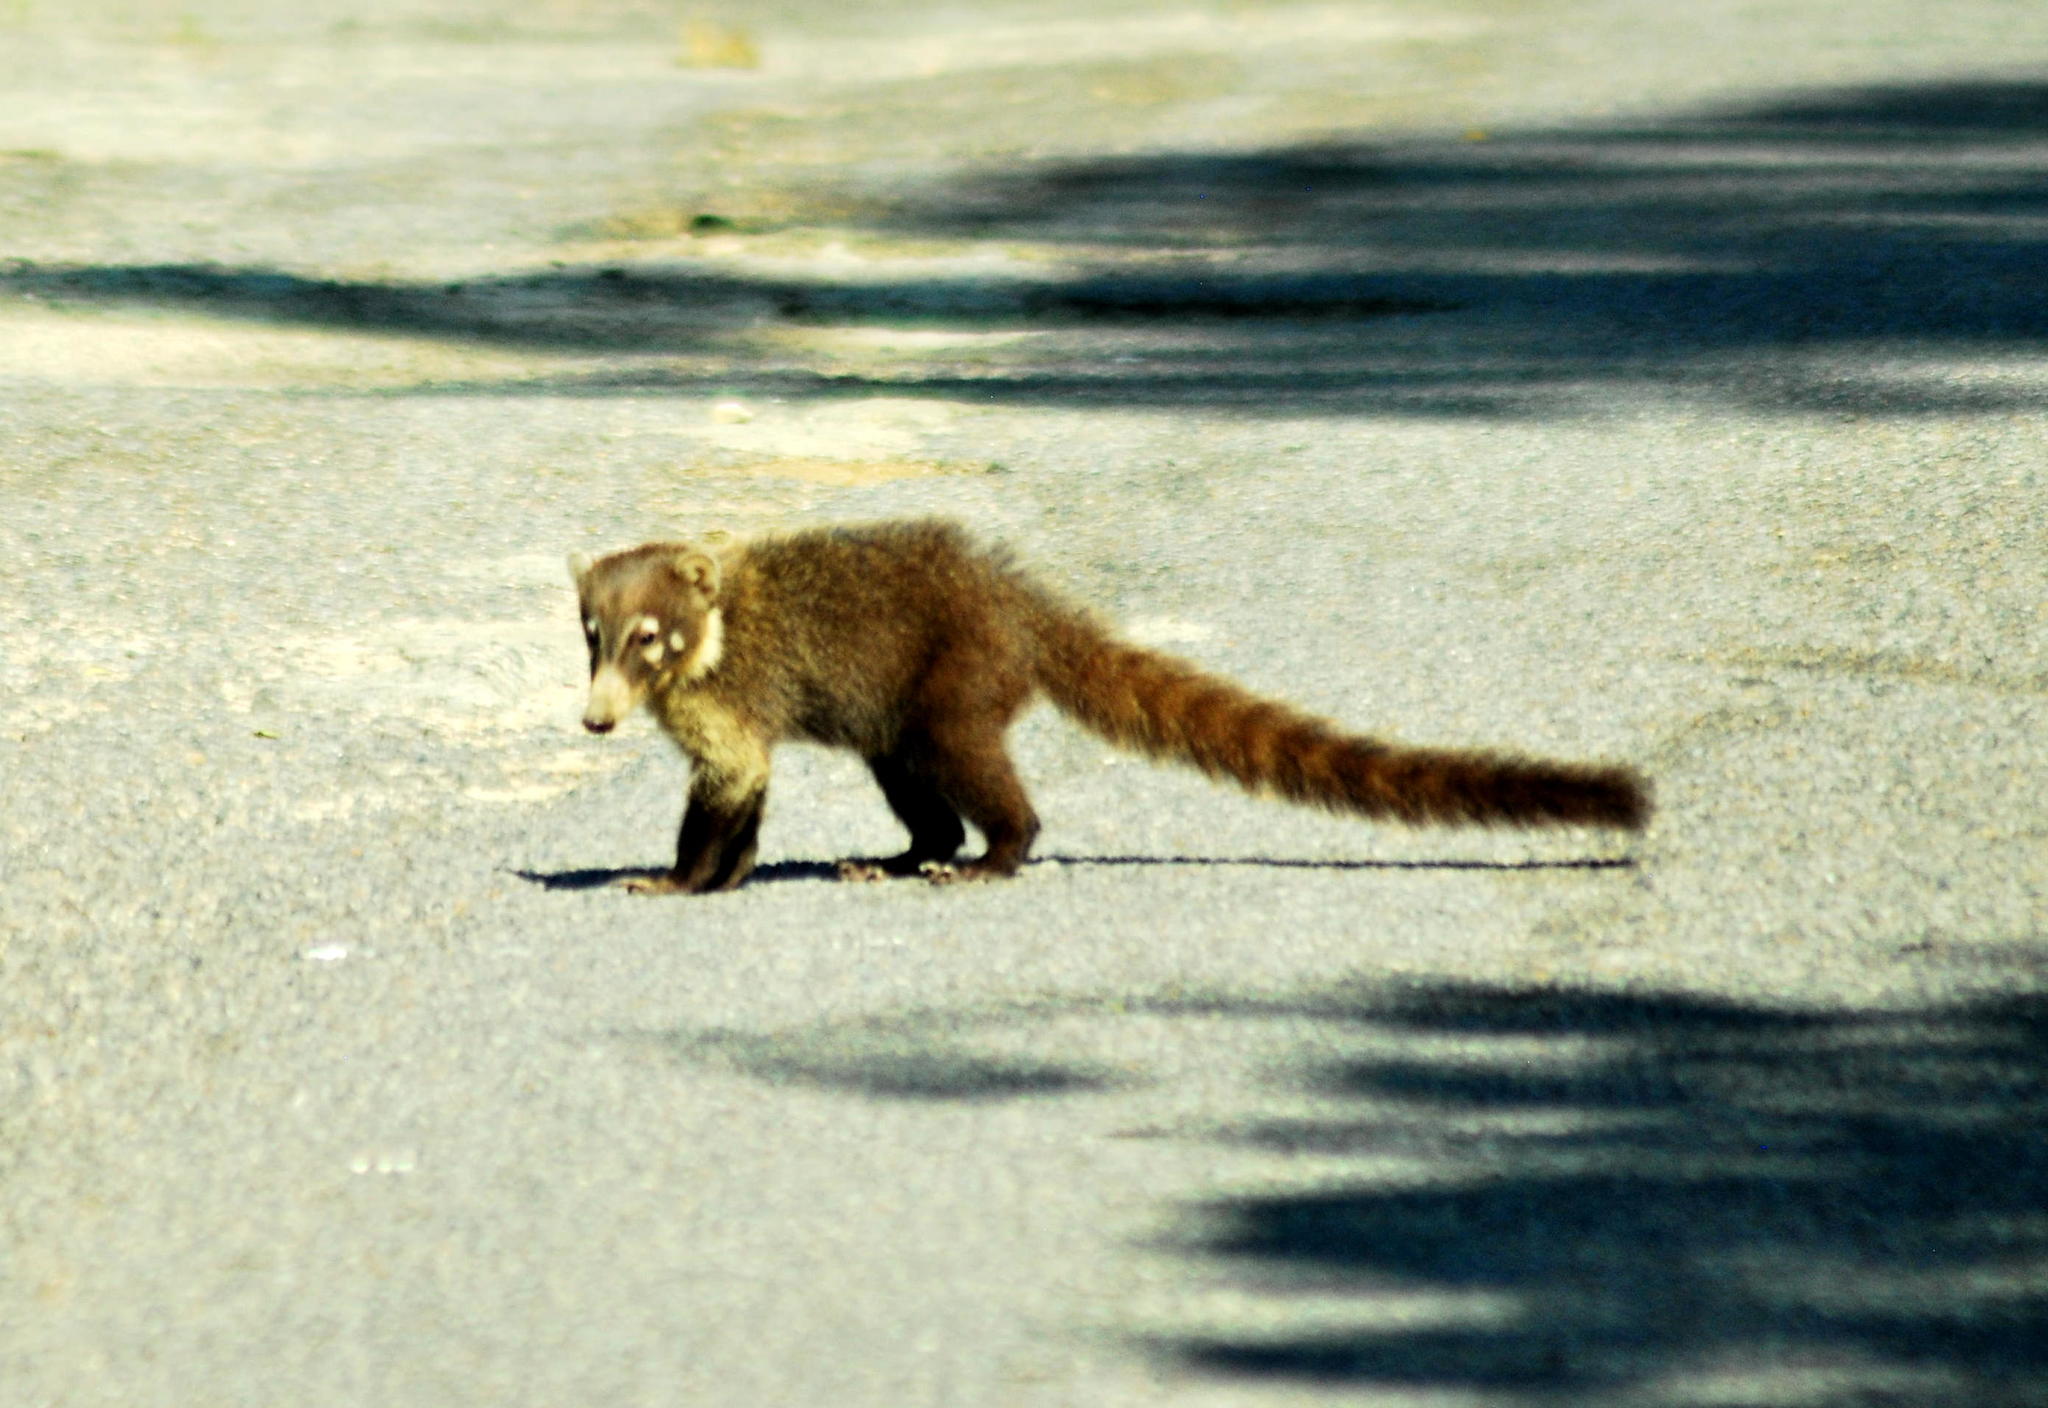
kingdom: Animalia
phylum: Chordata
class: Mammalia
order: Carnivora
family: Procyonidae
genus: Nasua
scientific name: Nasua narica
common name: White-nosed coati
